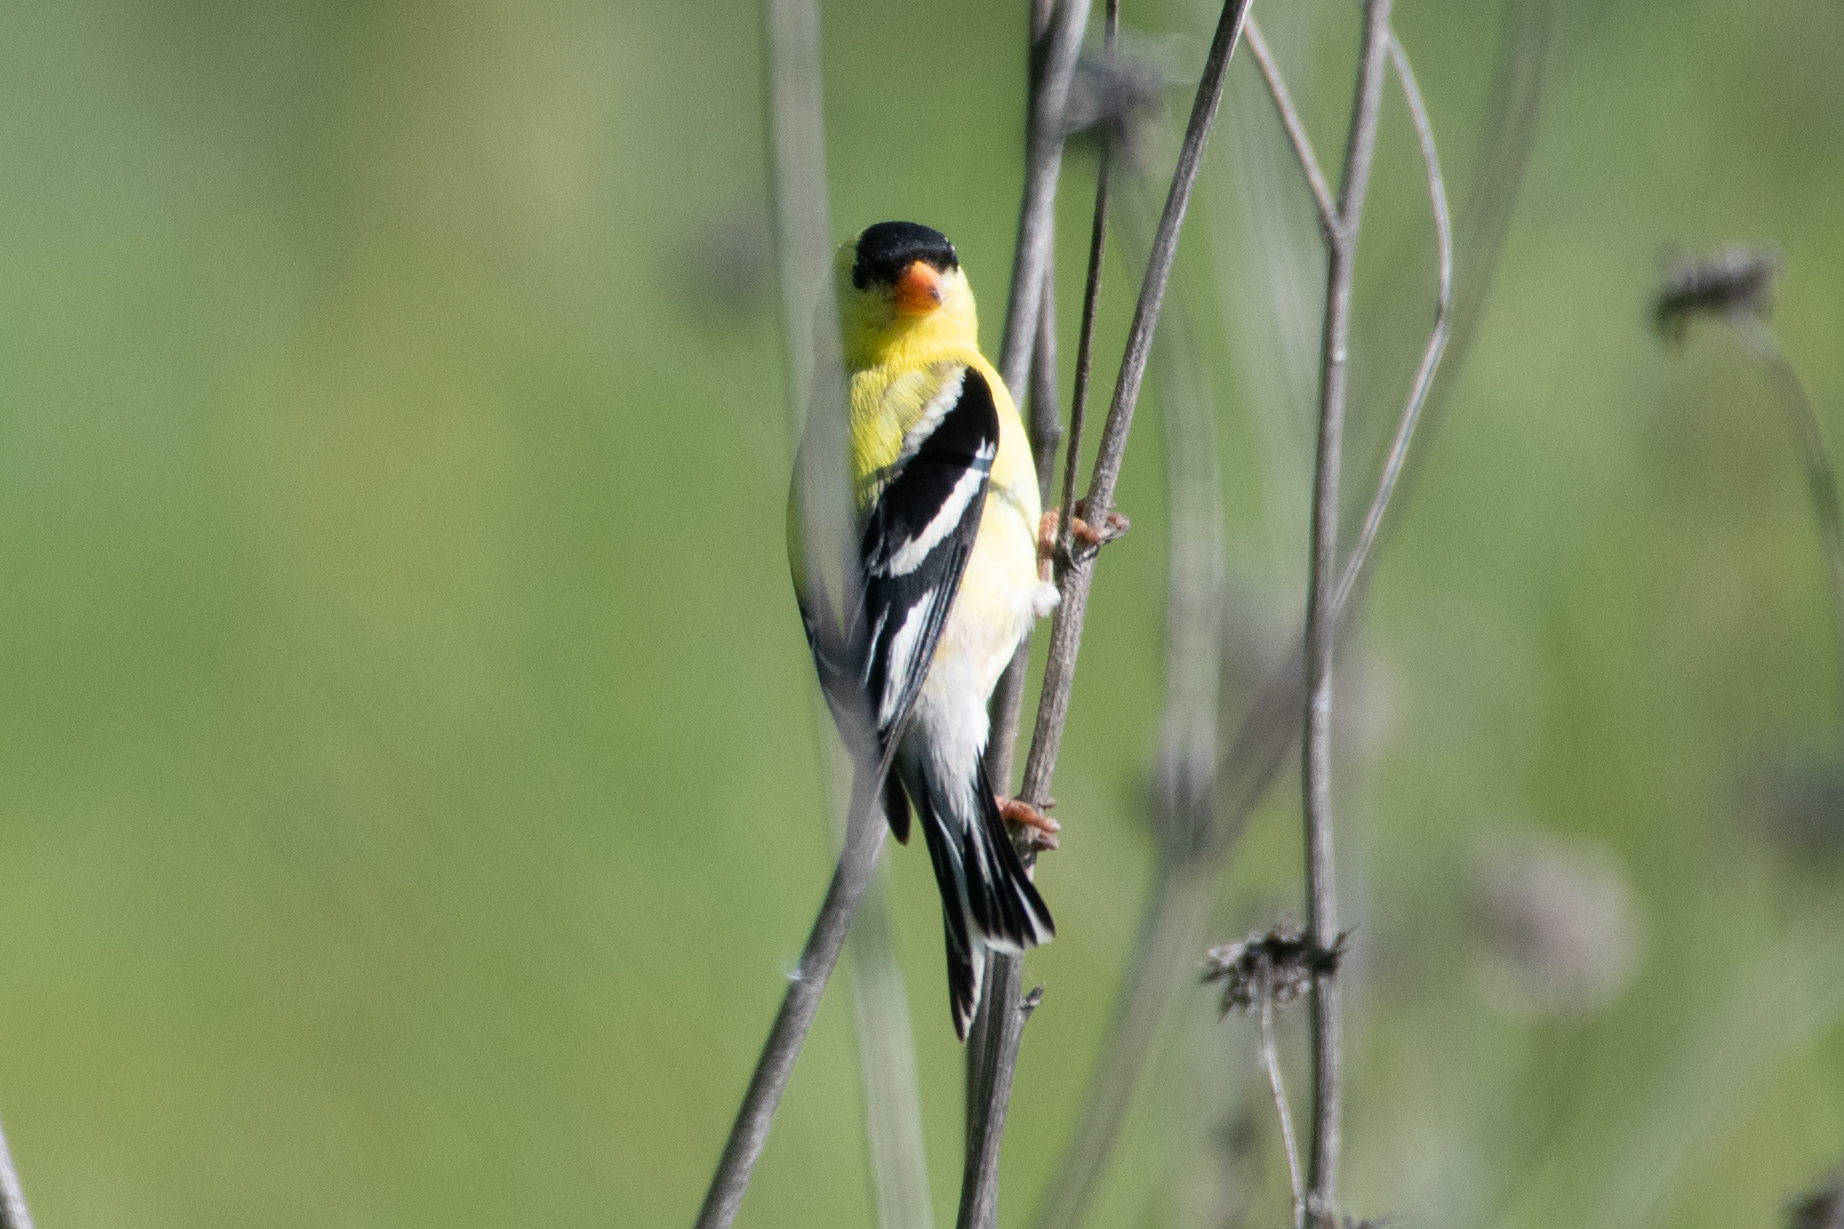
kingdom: Animalia
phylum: Chordata
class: Aves
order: Passeriformes
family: Fringillidae
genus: Spinus
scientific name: Spinus tristis
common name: American goldfinch
